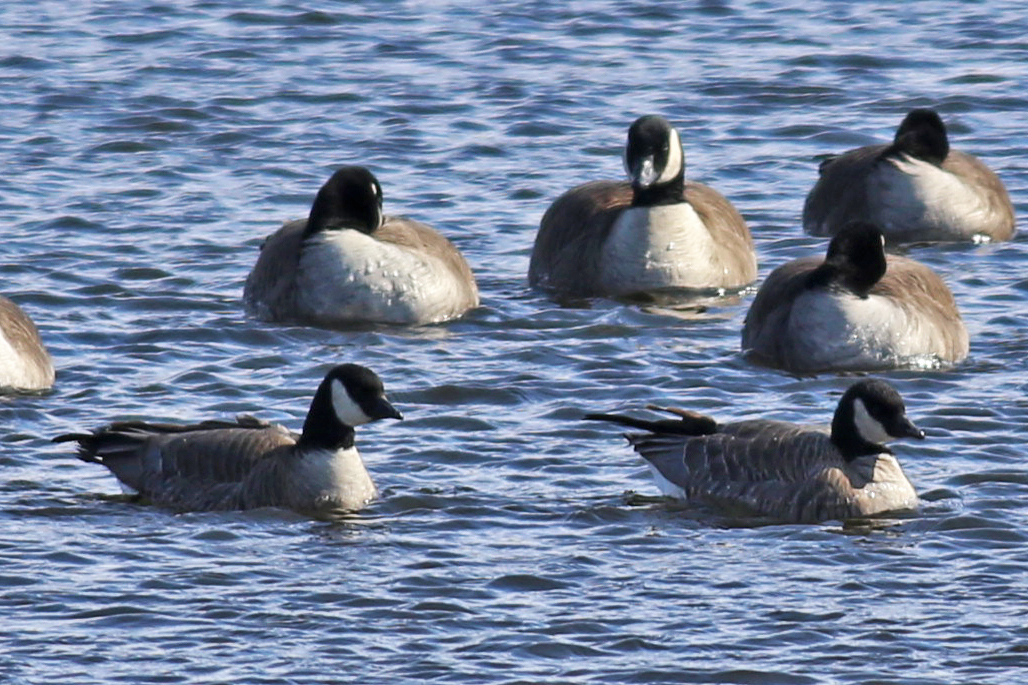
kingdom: Animalia
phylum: Chordata
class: Aves
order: Anseriformes
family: Anatidae
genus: Branta
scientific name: Branta hutchinsii
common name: Cackling goose
